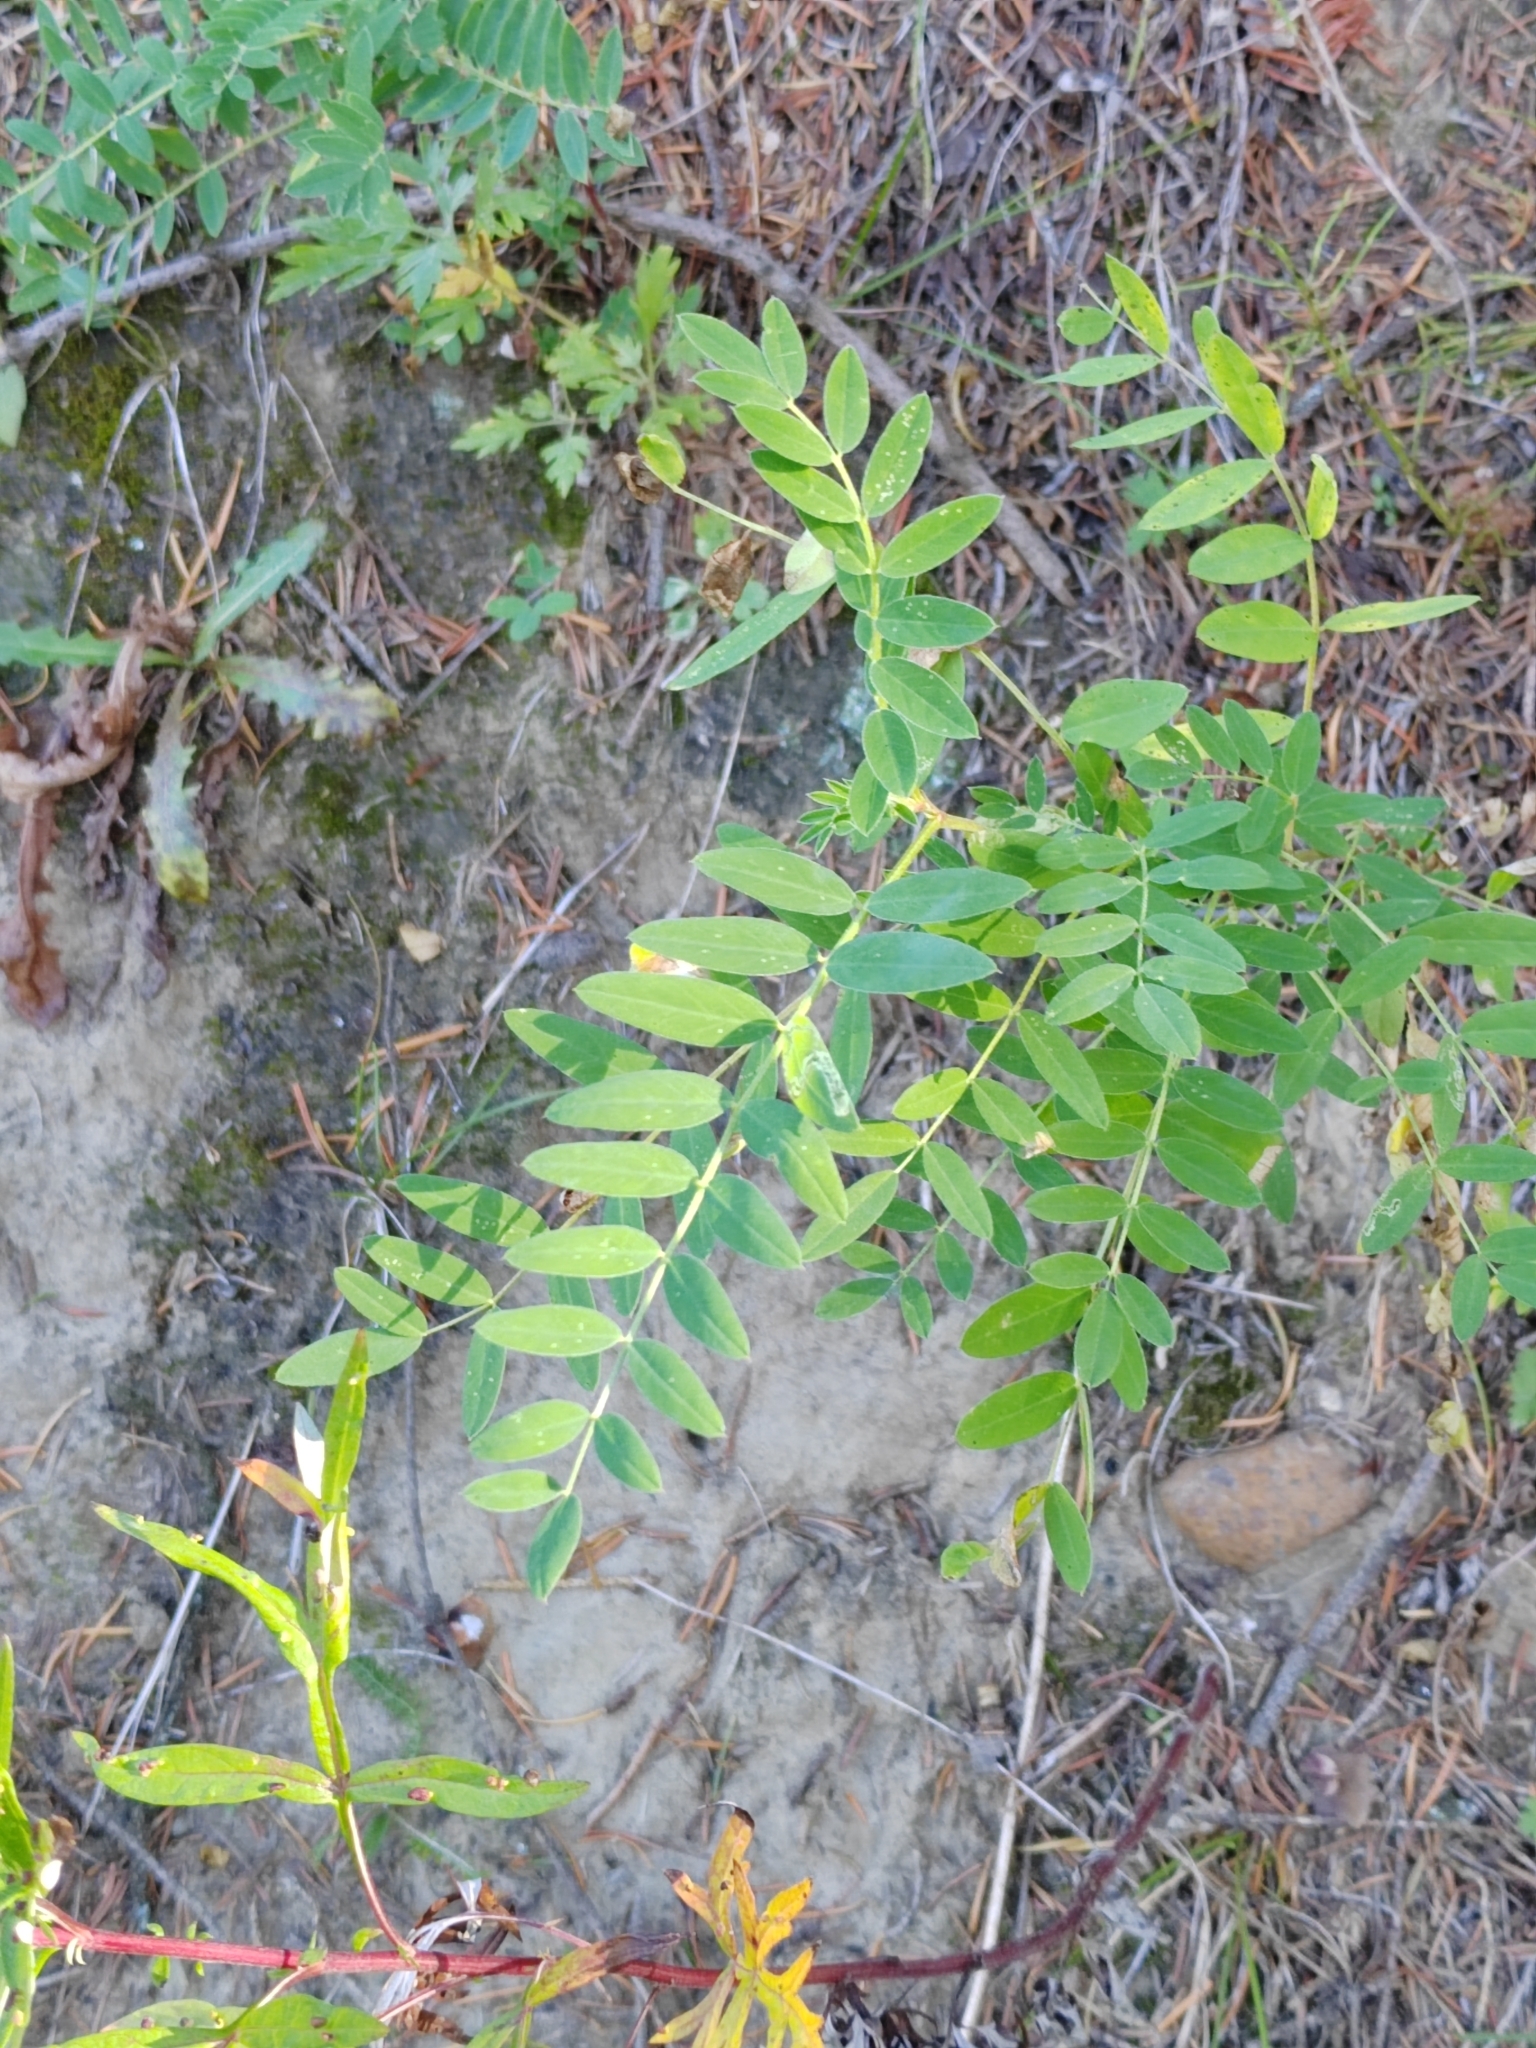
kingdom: Plantae
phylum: Tracheophyta
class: Magnoliopsida
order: Fabales
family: Fabaceae
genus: Astragalus
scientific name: Astragalus uliginosus
